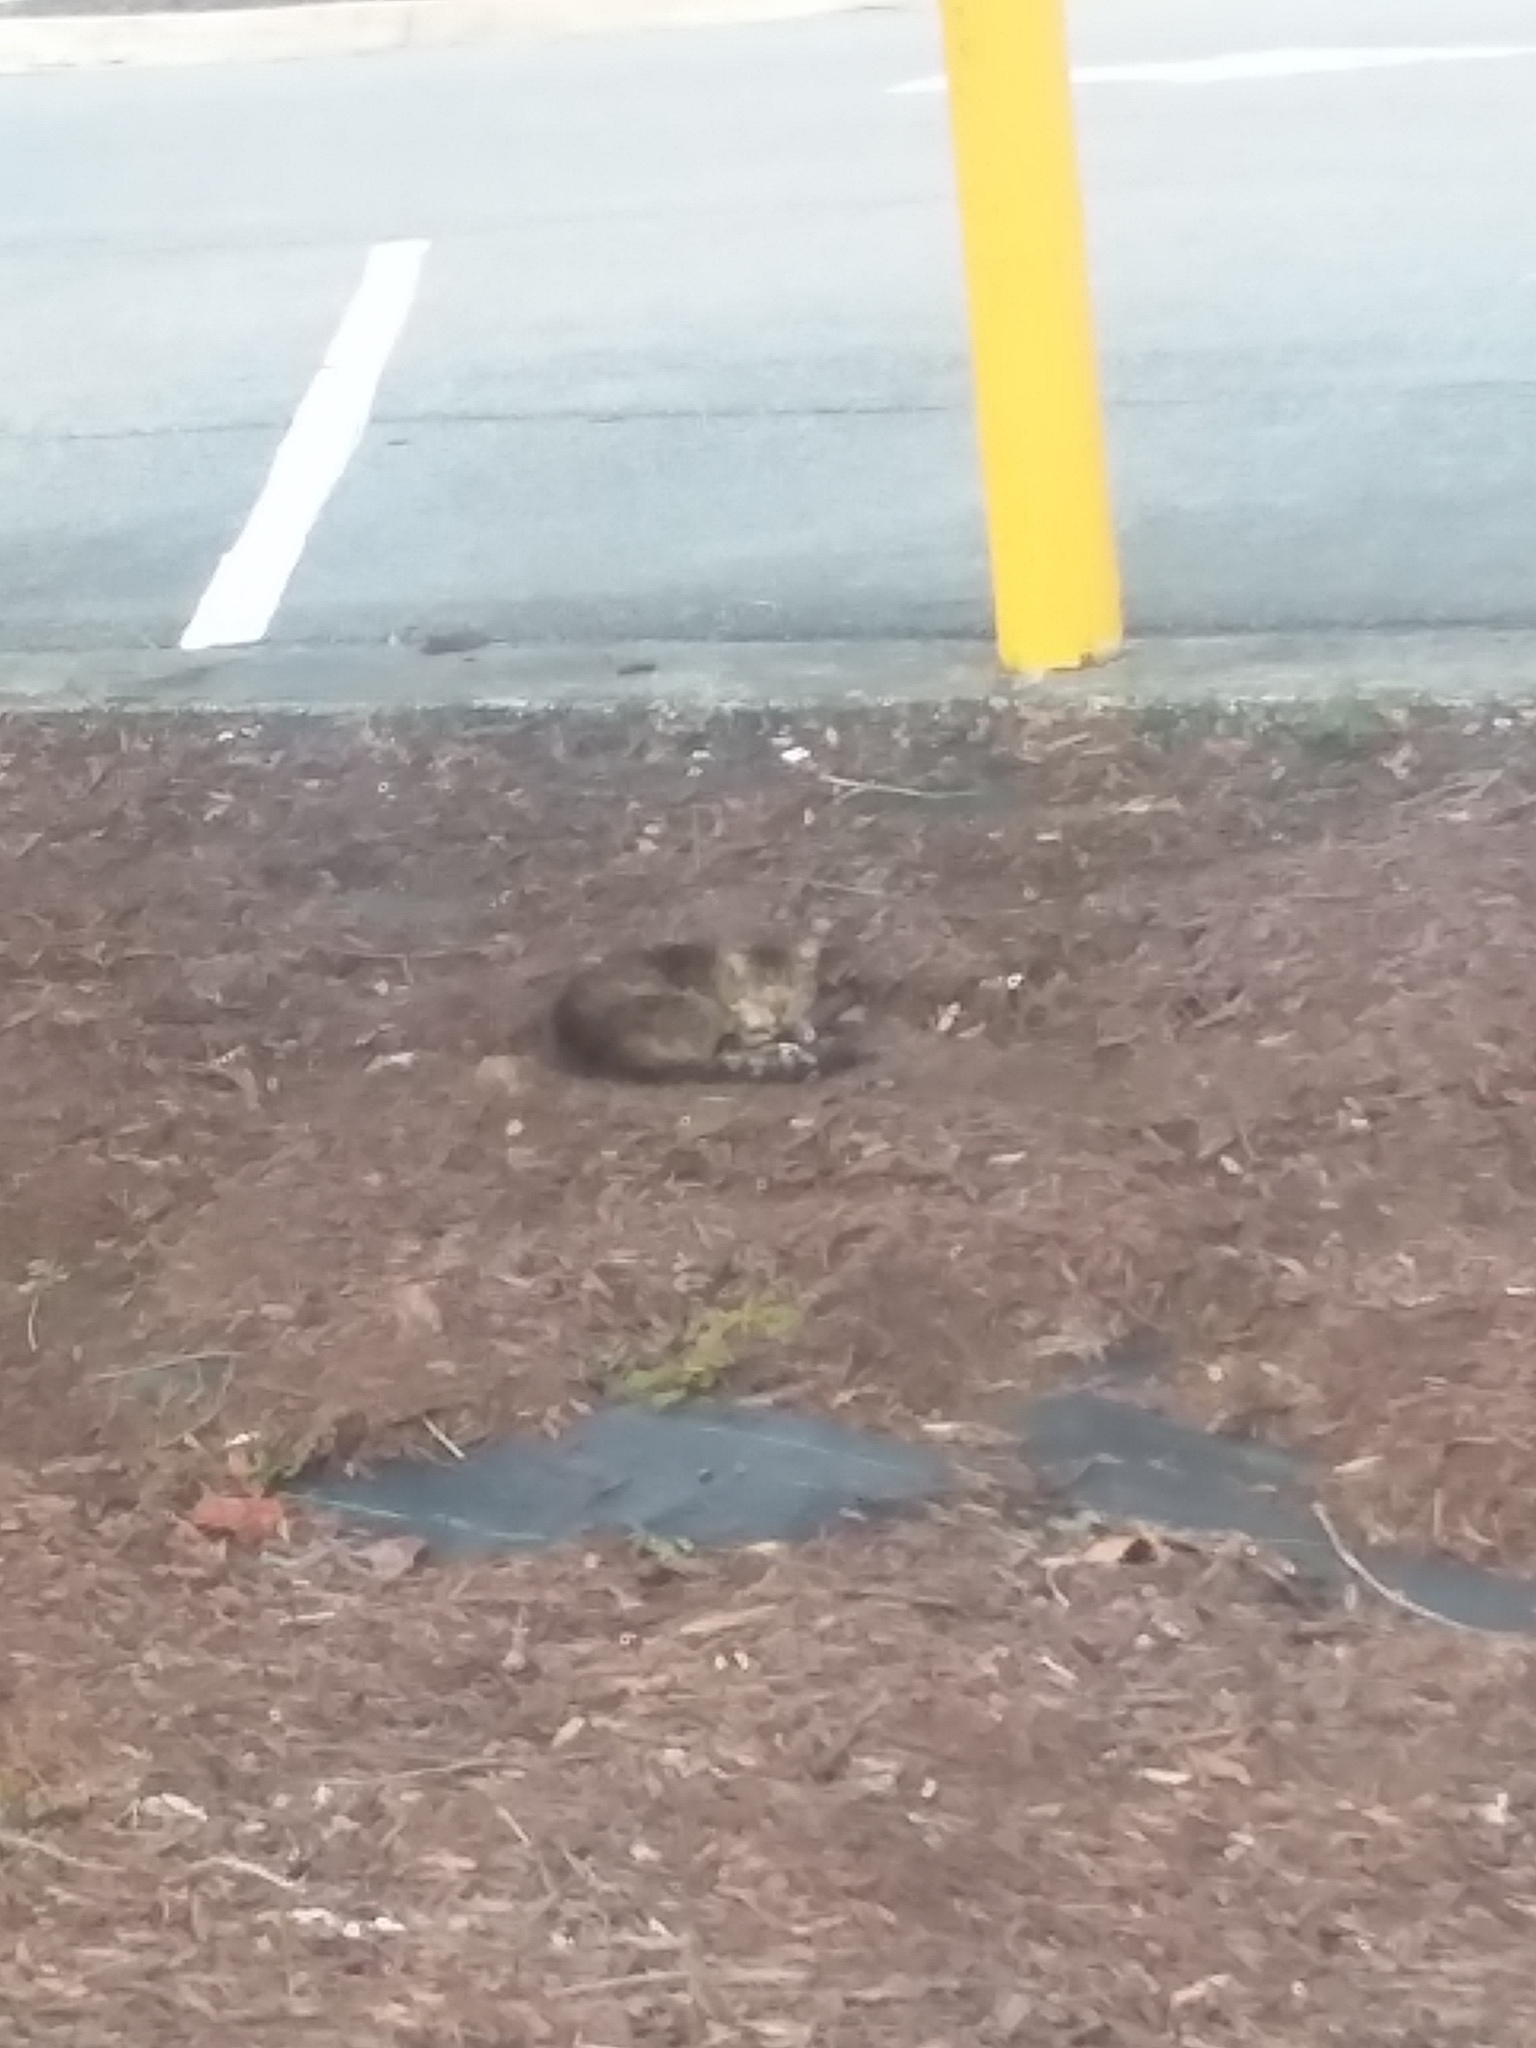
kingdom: Animalia
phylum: Chordata
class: Mammalia
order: Carnivora
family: Felidae
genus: Felis
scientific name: Felis catus
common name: Domestic cat
